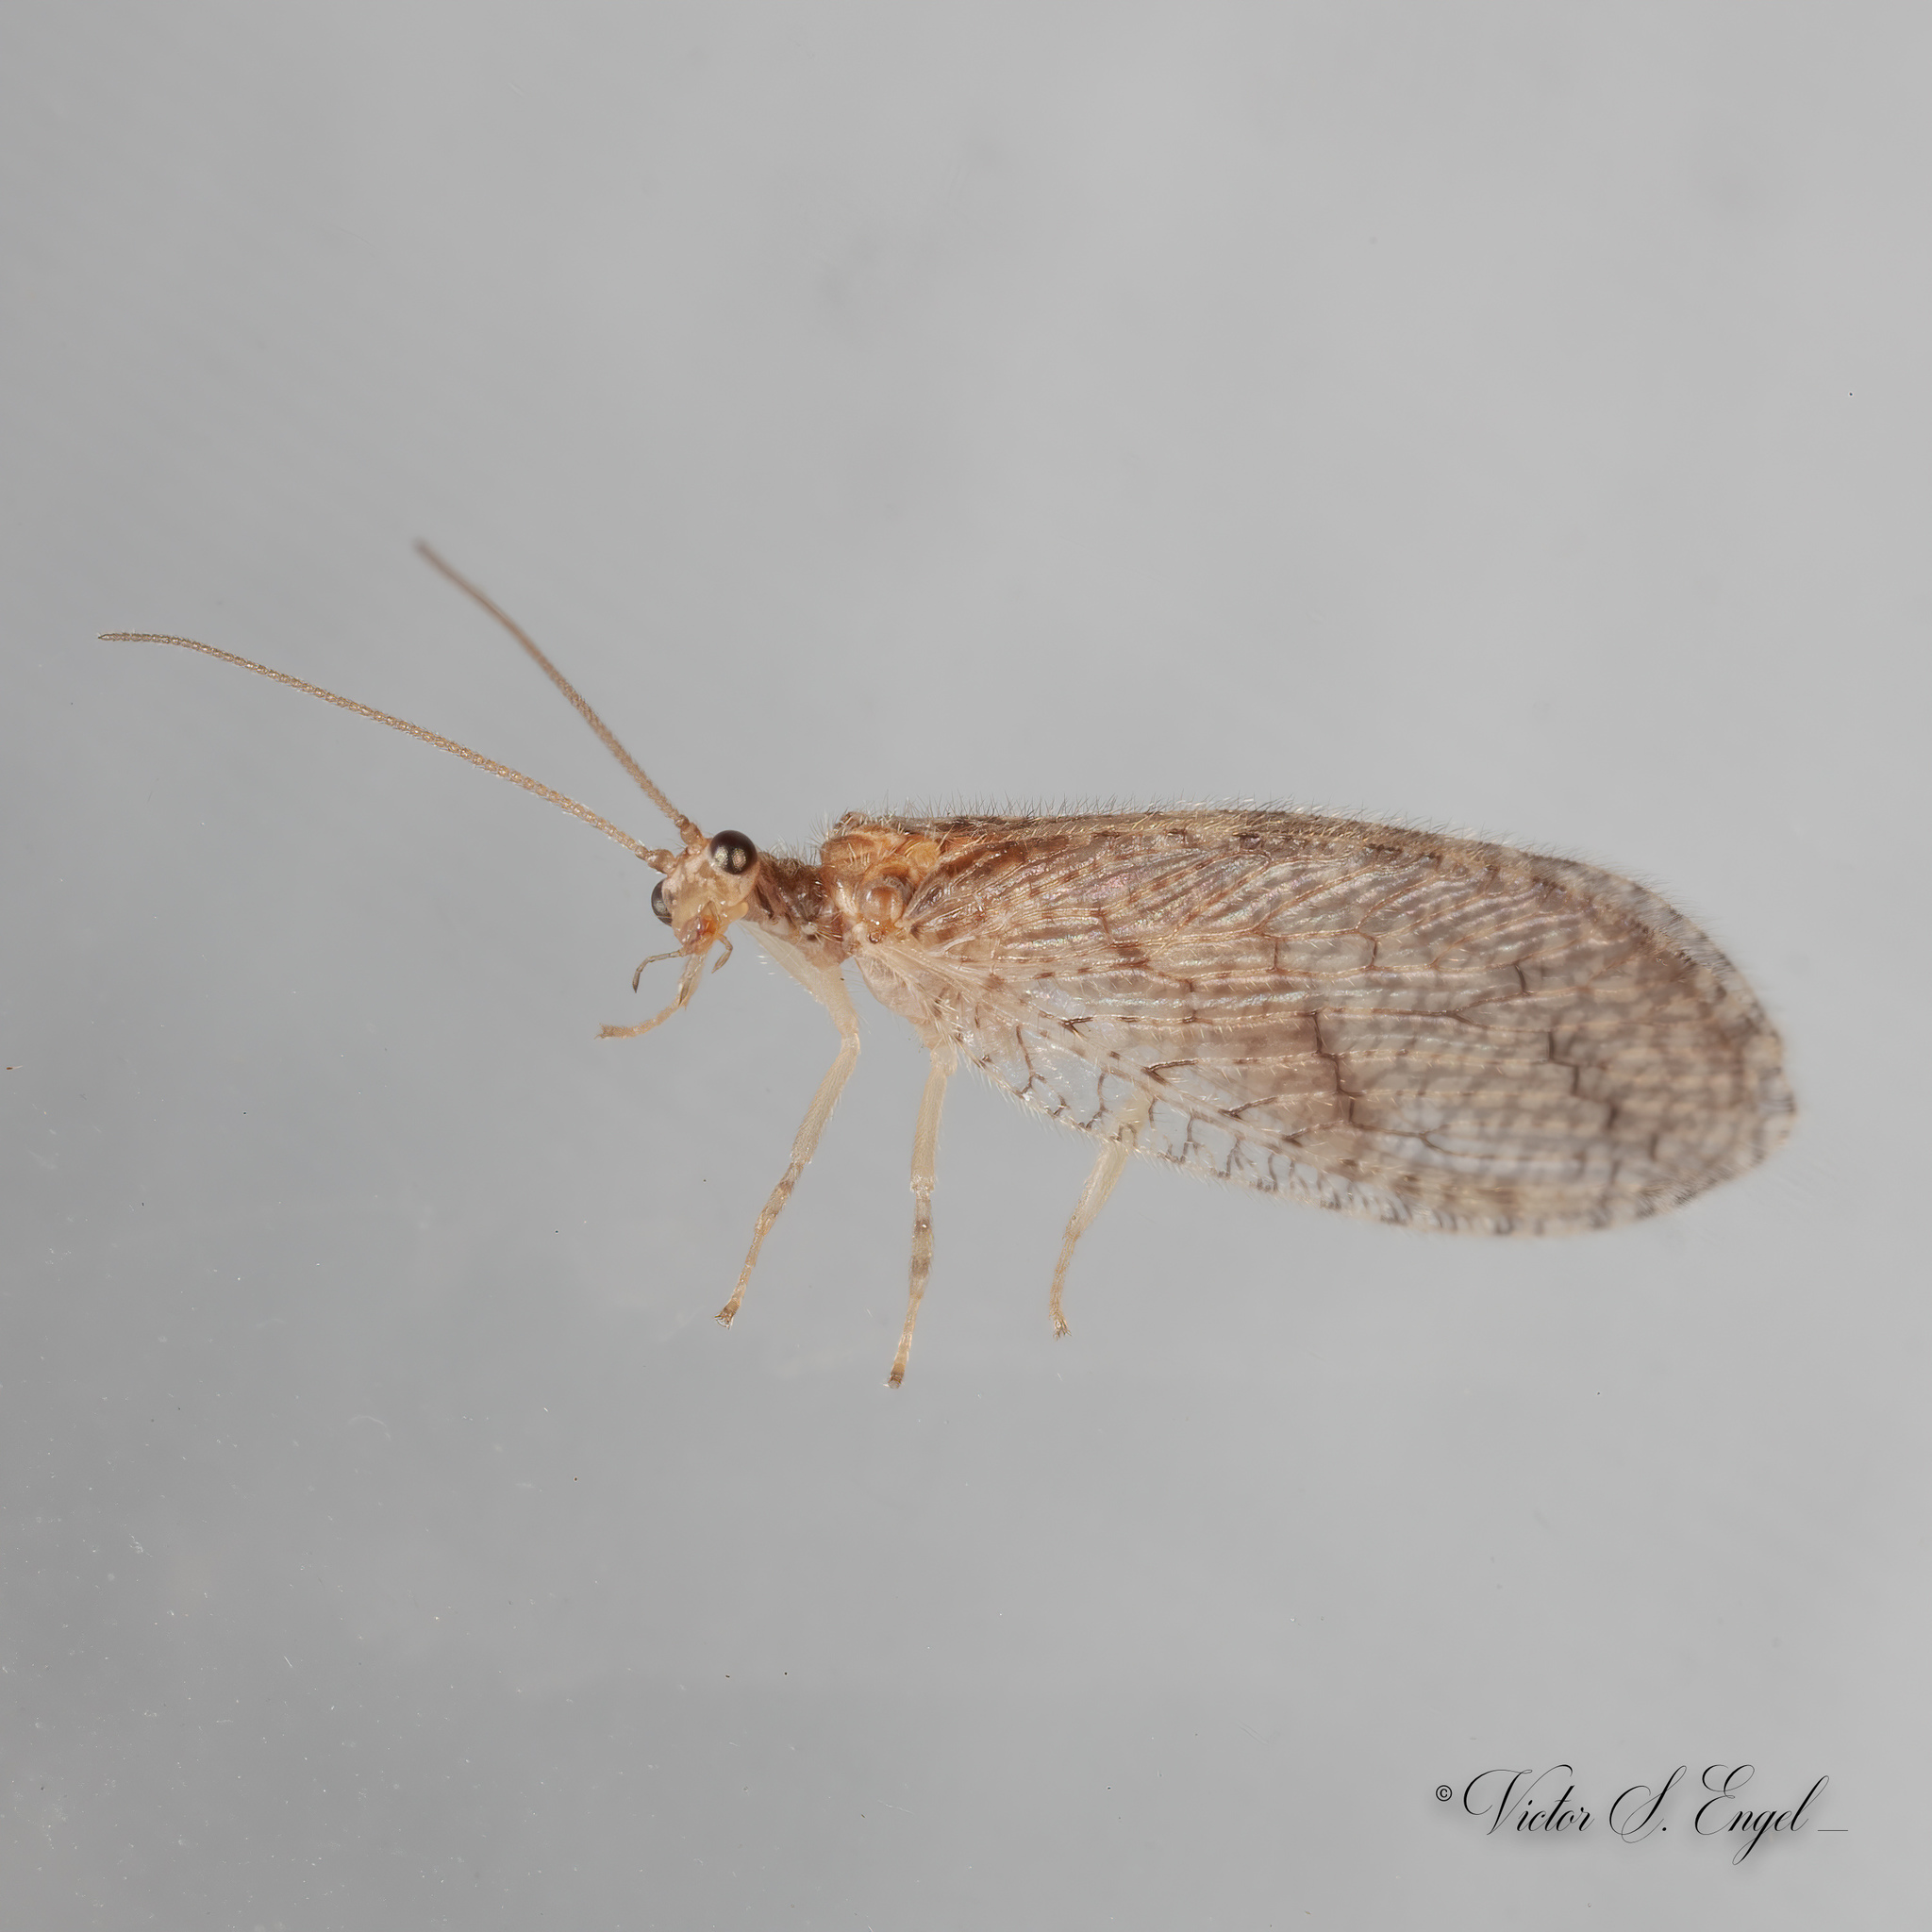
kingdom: Animalia
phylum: Arthropoda
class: Insecta
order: Neuroptera
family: Hemerobiidae
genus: Micromus
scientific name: Micromus posticus
